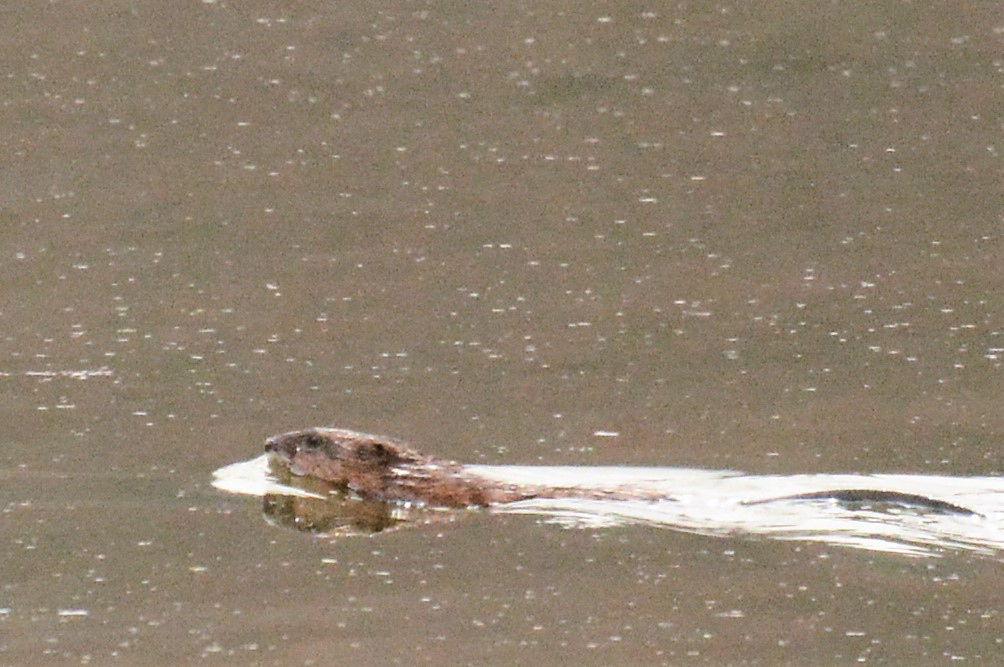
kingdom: Animalia
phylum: Chordata
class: Mammalia
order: Rodentia
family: Cricetidae
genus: Ondatra
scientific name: Ondatra zibethicus
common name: Muskrat
